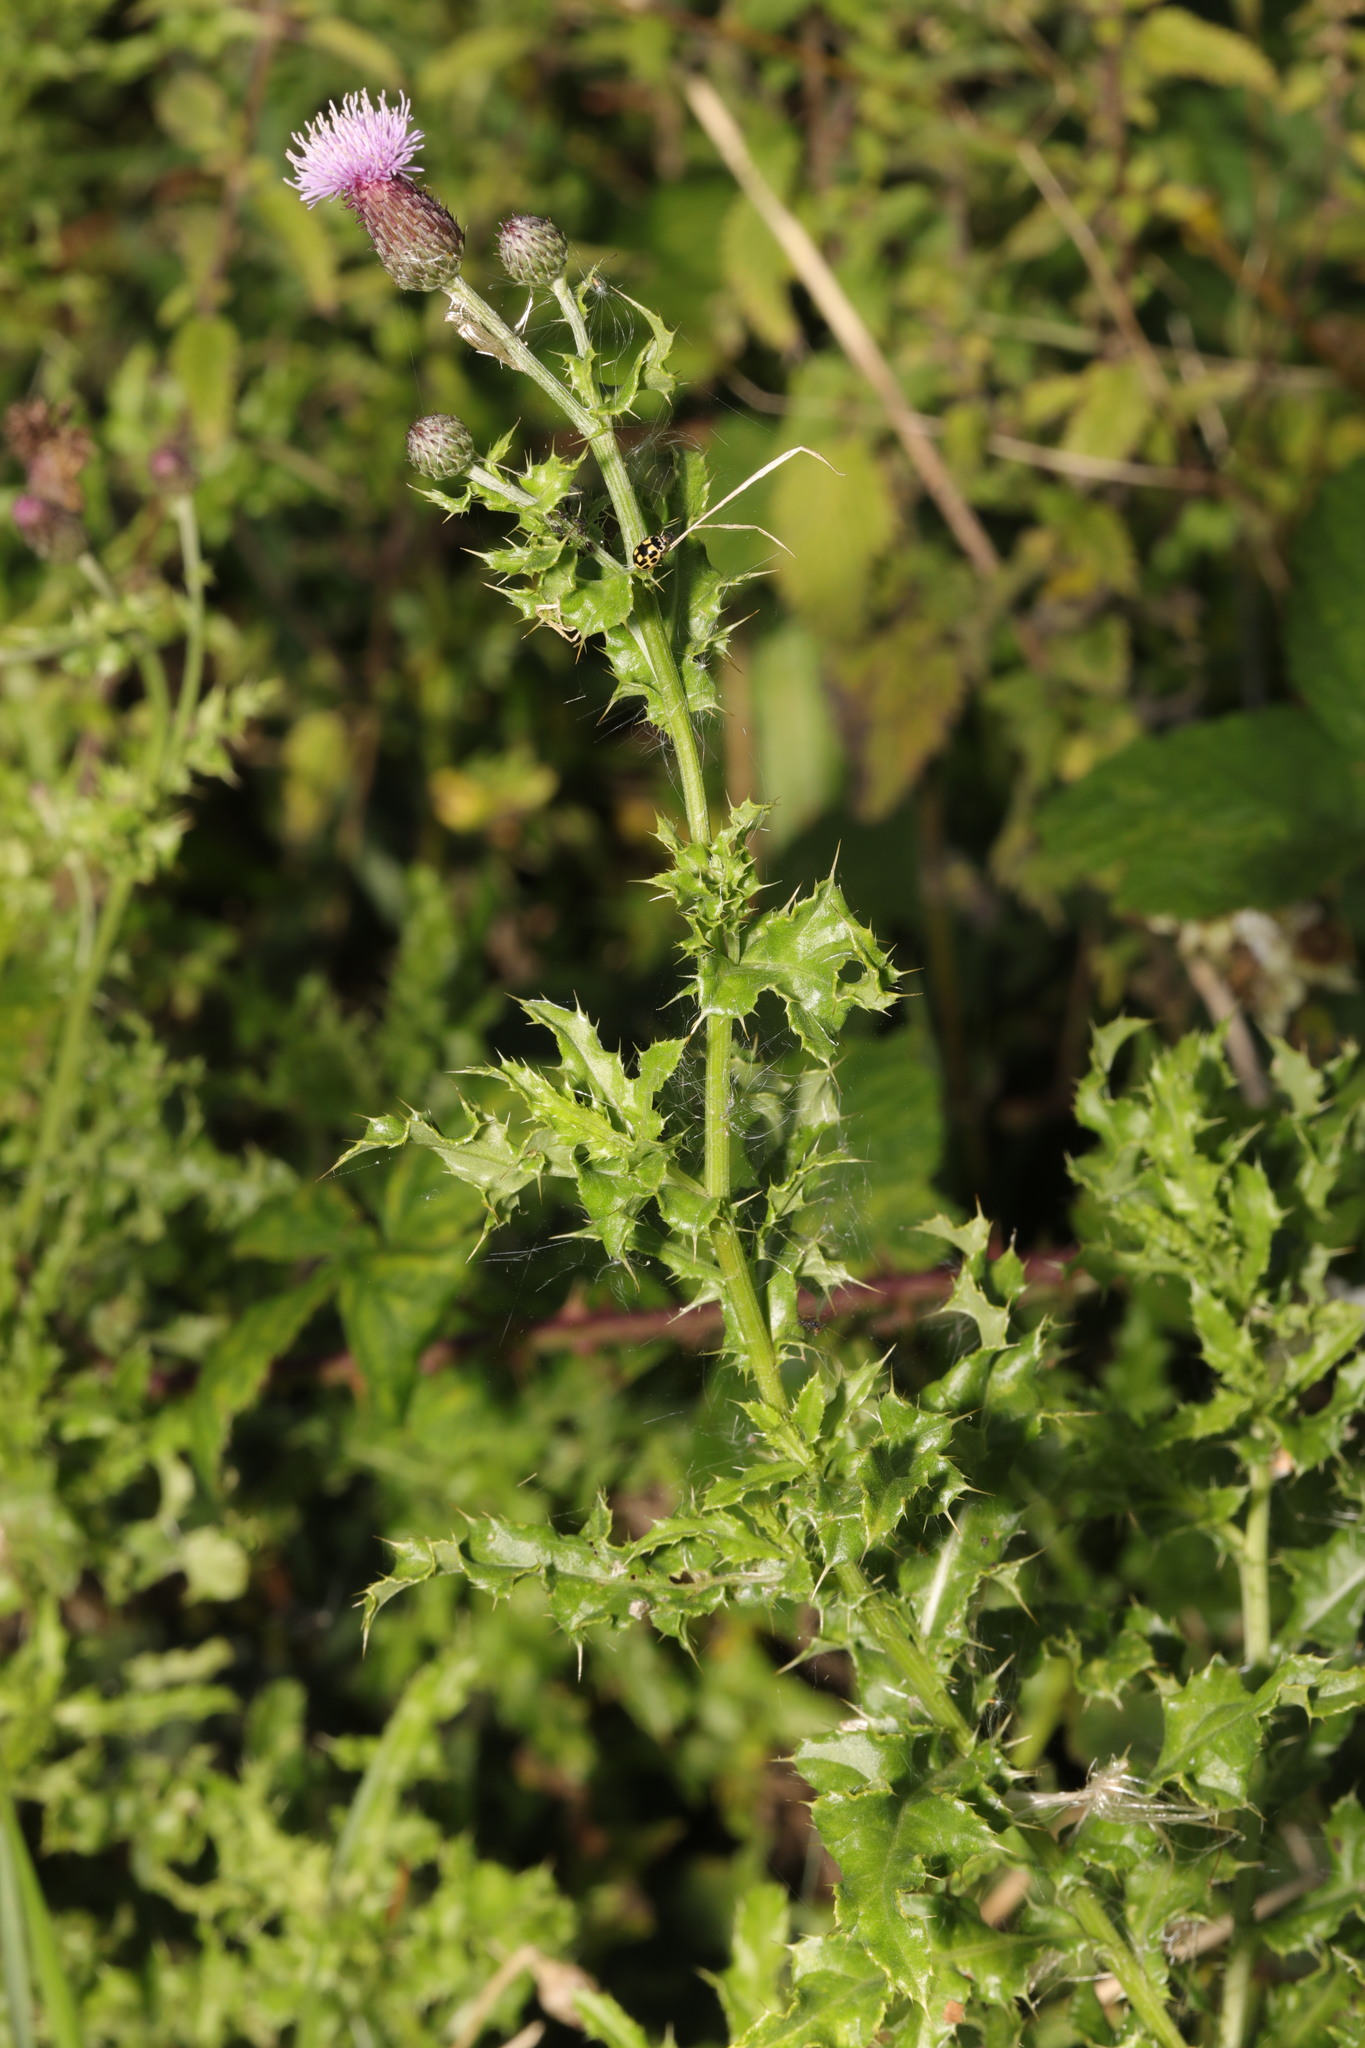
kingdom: Plantae
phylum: Tracheophyta
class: Magnoliopsida
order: Asterales
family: Asteraceae
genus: Cirsium
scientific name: Cirsium arvense
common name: Creeping thistle
